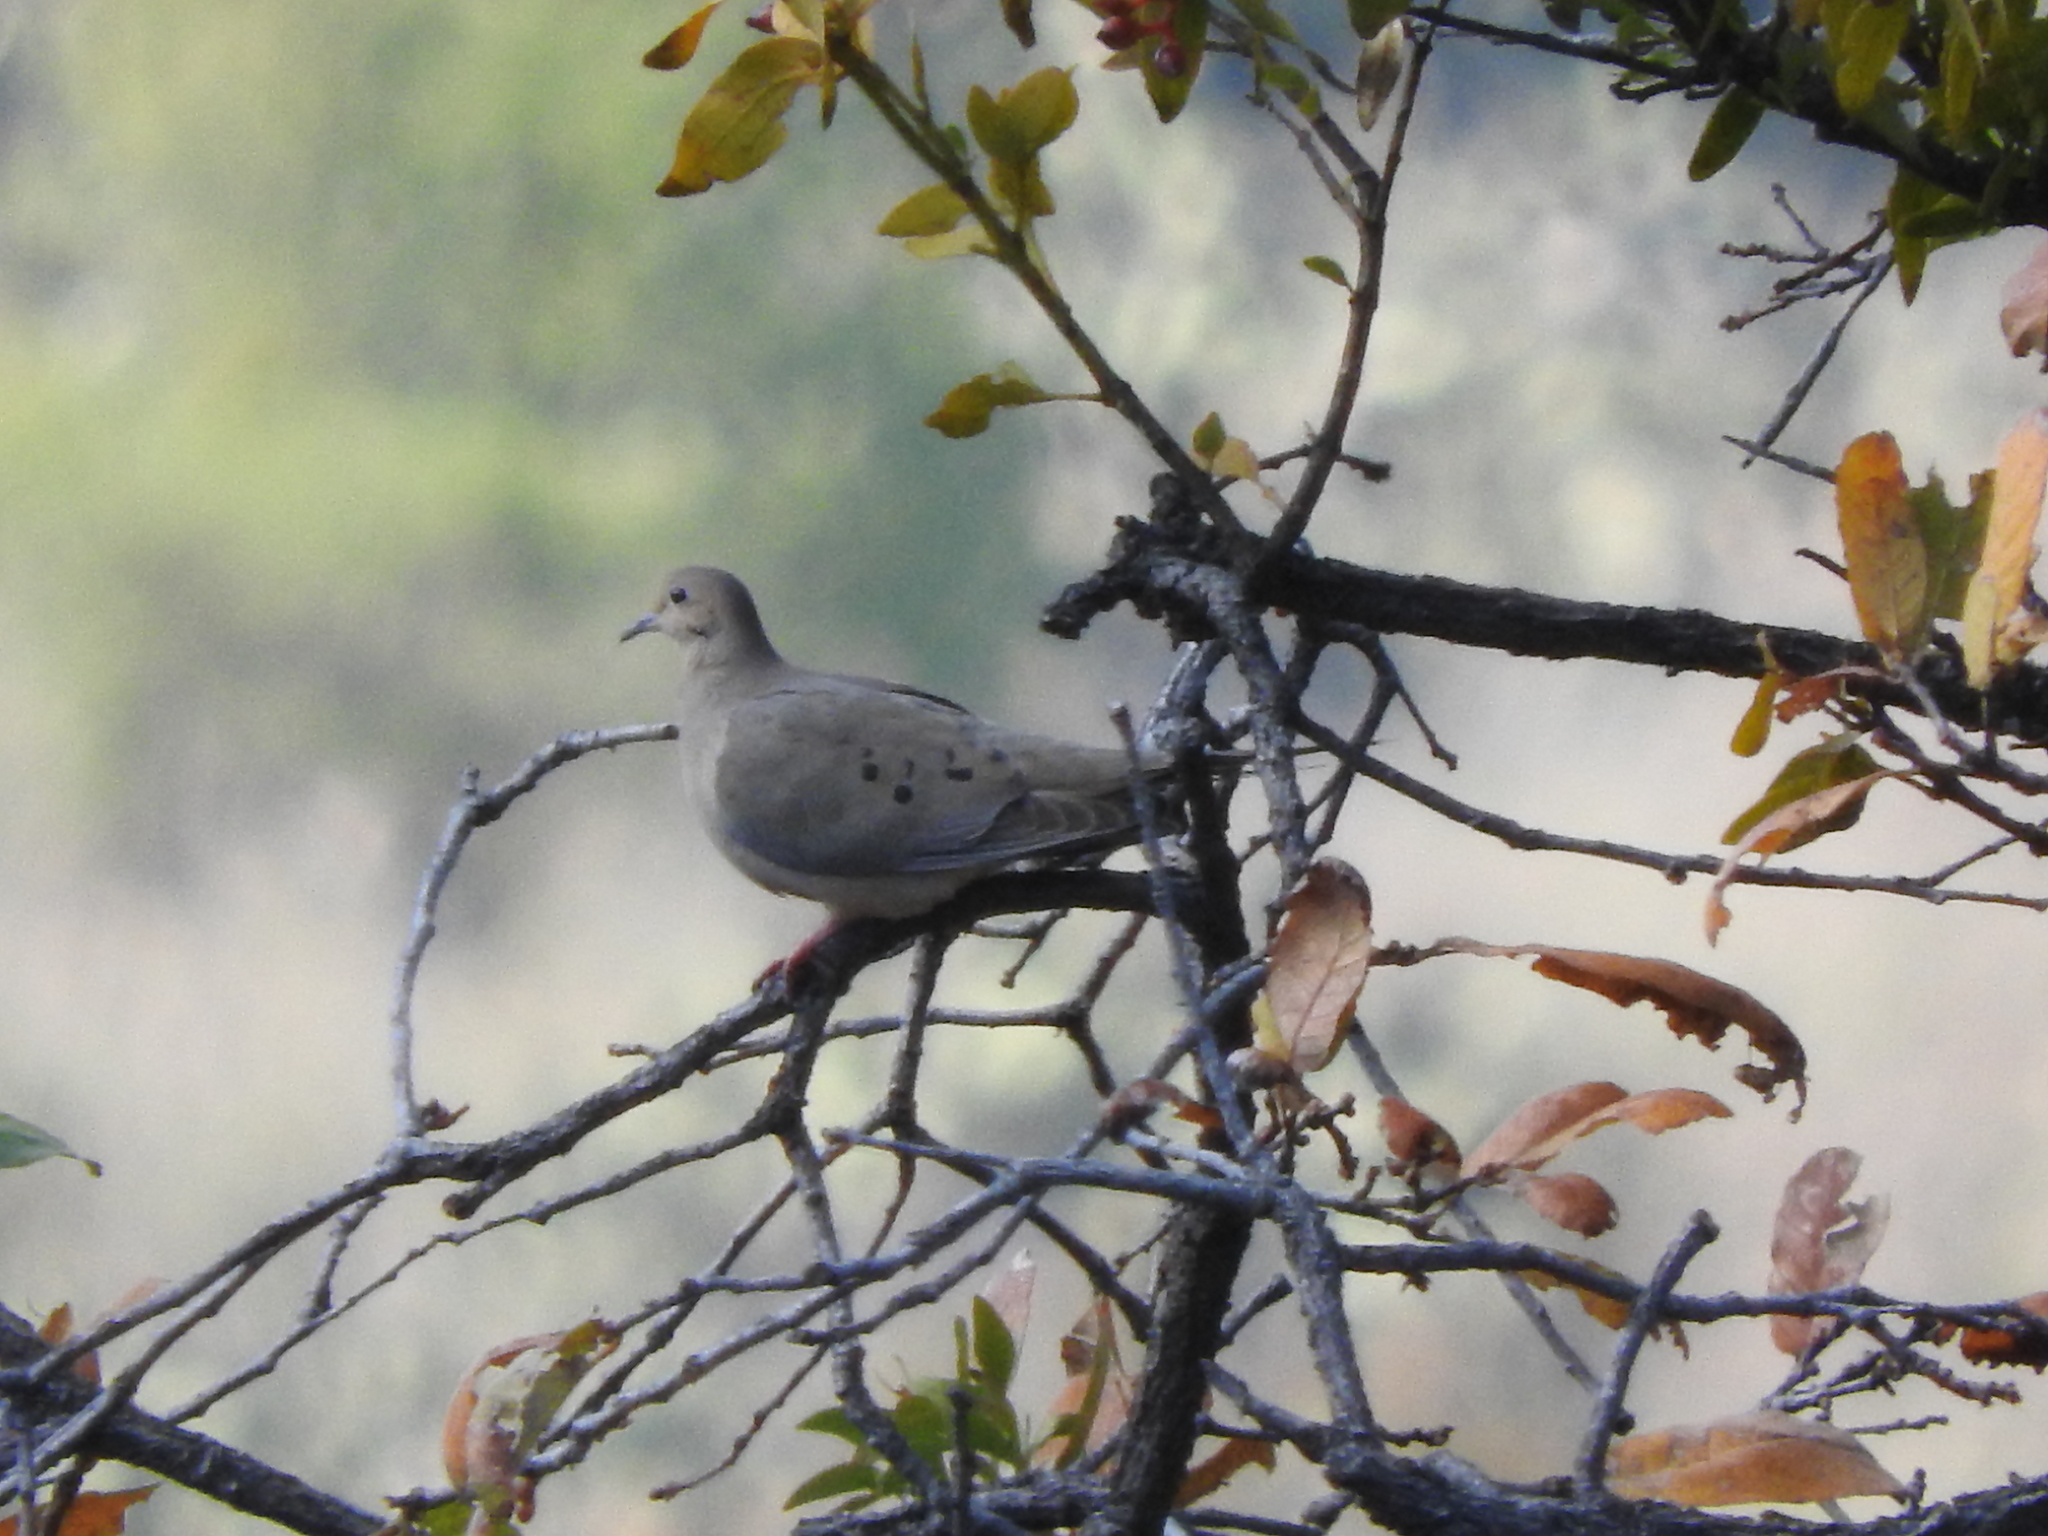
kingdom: Animalia
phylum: Chordata
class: Aves
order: Columbiformes
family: Columbidae
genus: Zenaida
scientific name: Zenaida macroura
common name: Mourning dove
